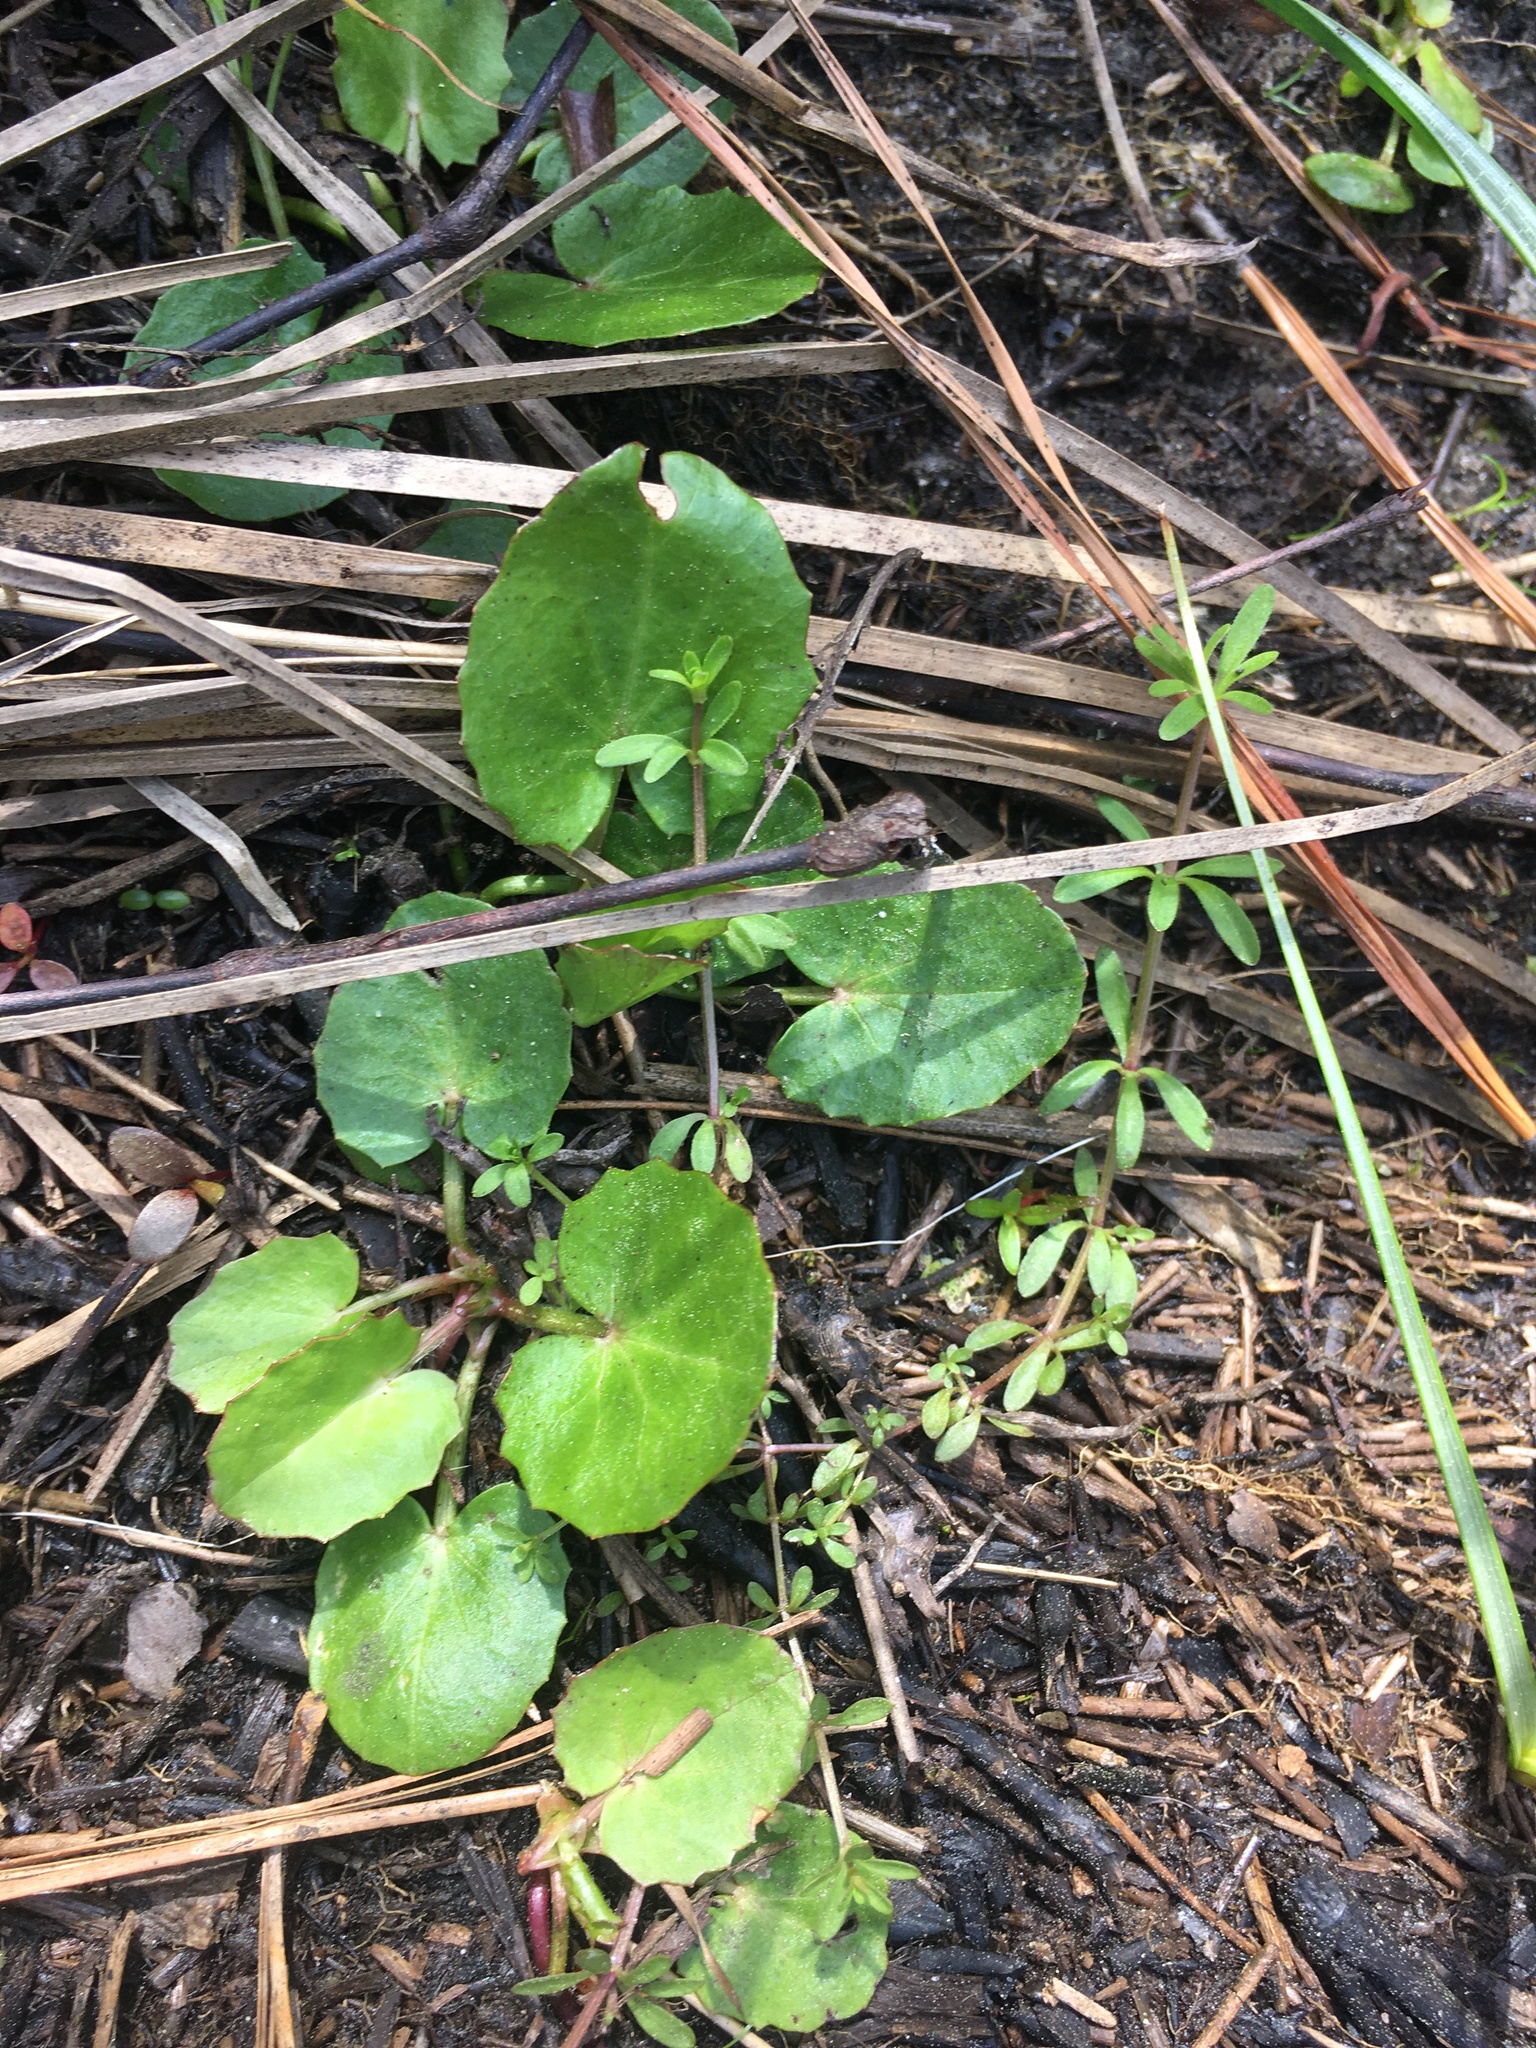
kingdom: Plantae
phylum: Tracheophyta
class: Magnoliopsida
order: Apiales
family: Apiaceae
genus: Centella
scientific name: Centella erecta
